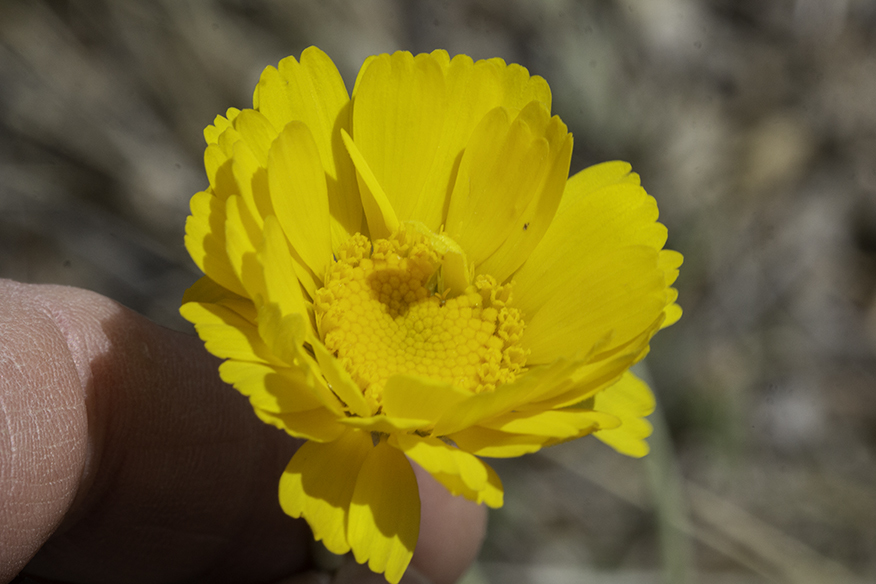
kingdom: Plantae
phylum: Tracheophyta
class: Magnoliopsida
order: Asterales
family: Asteraceae
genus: Baileya
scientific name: Baileya multiradiata
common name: Desert-marigold
